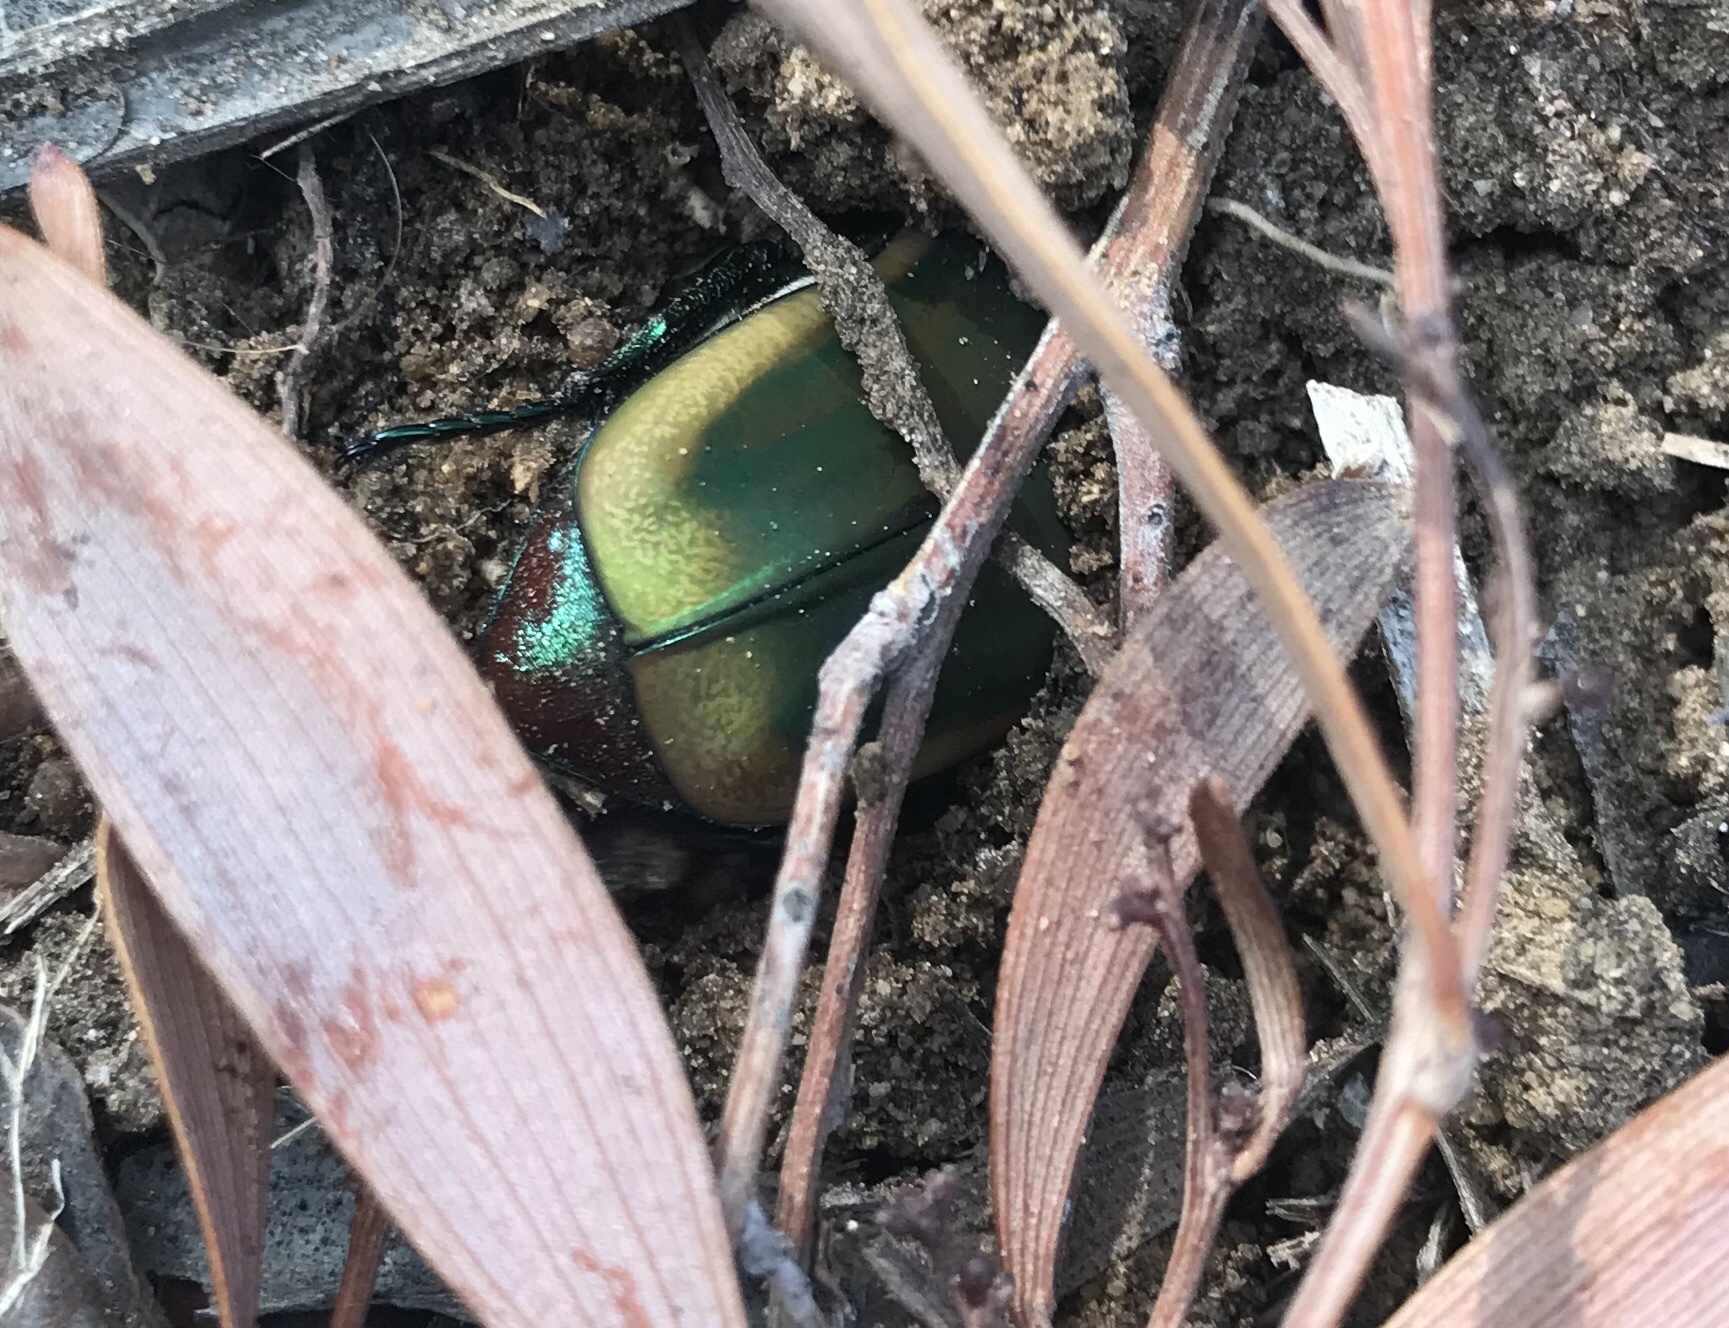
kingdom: Animalia
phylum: Arthropoda
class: Insecta
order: Coleoptera
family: Scarabaeidae
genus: Cotinis
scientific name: Cotinis mutabilis
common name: Figeater beetle
